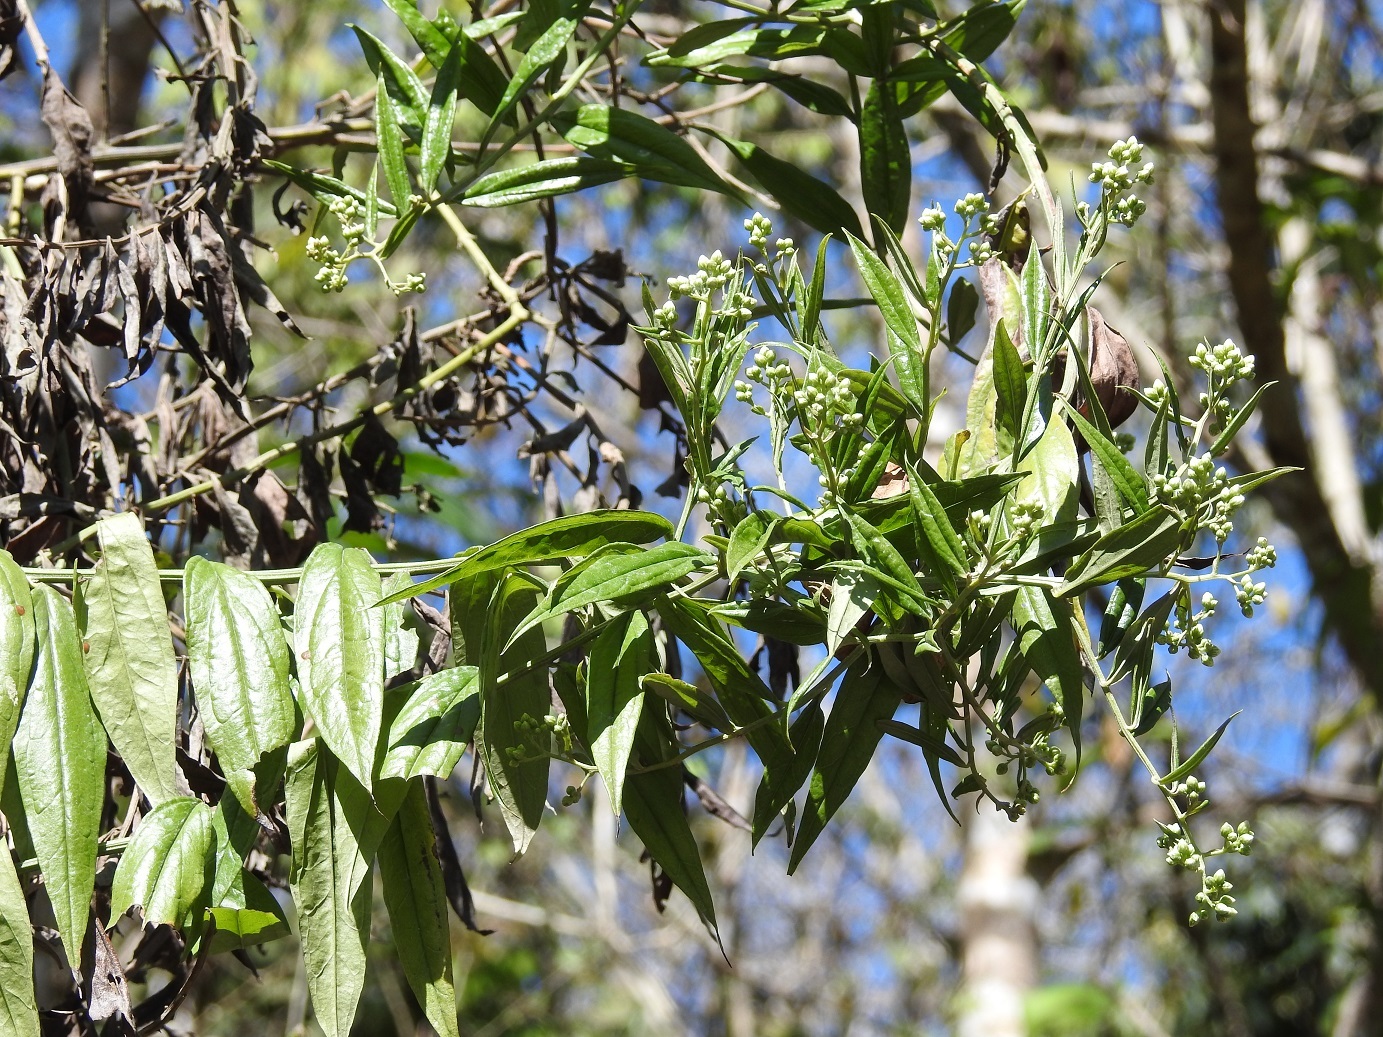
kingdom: Plantae
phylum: Tracheophyta
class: Magnoliopsida
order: Asterales
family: Asteraceae
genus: Baccharis
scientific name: Baccharis trinervis
